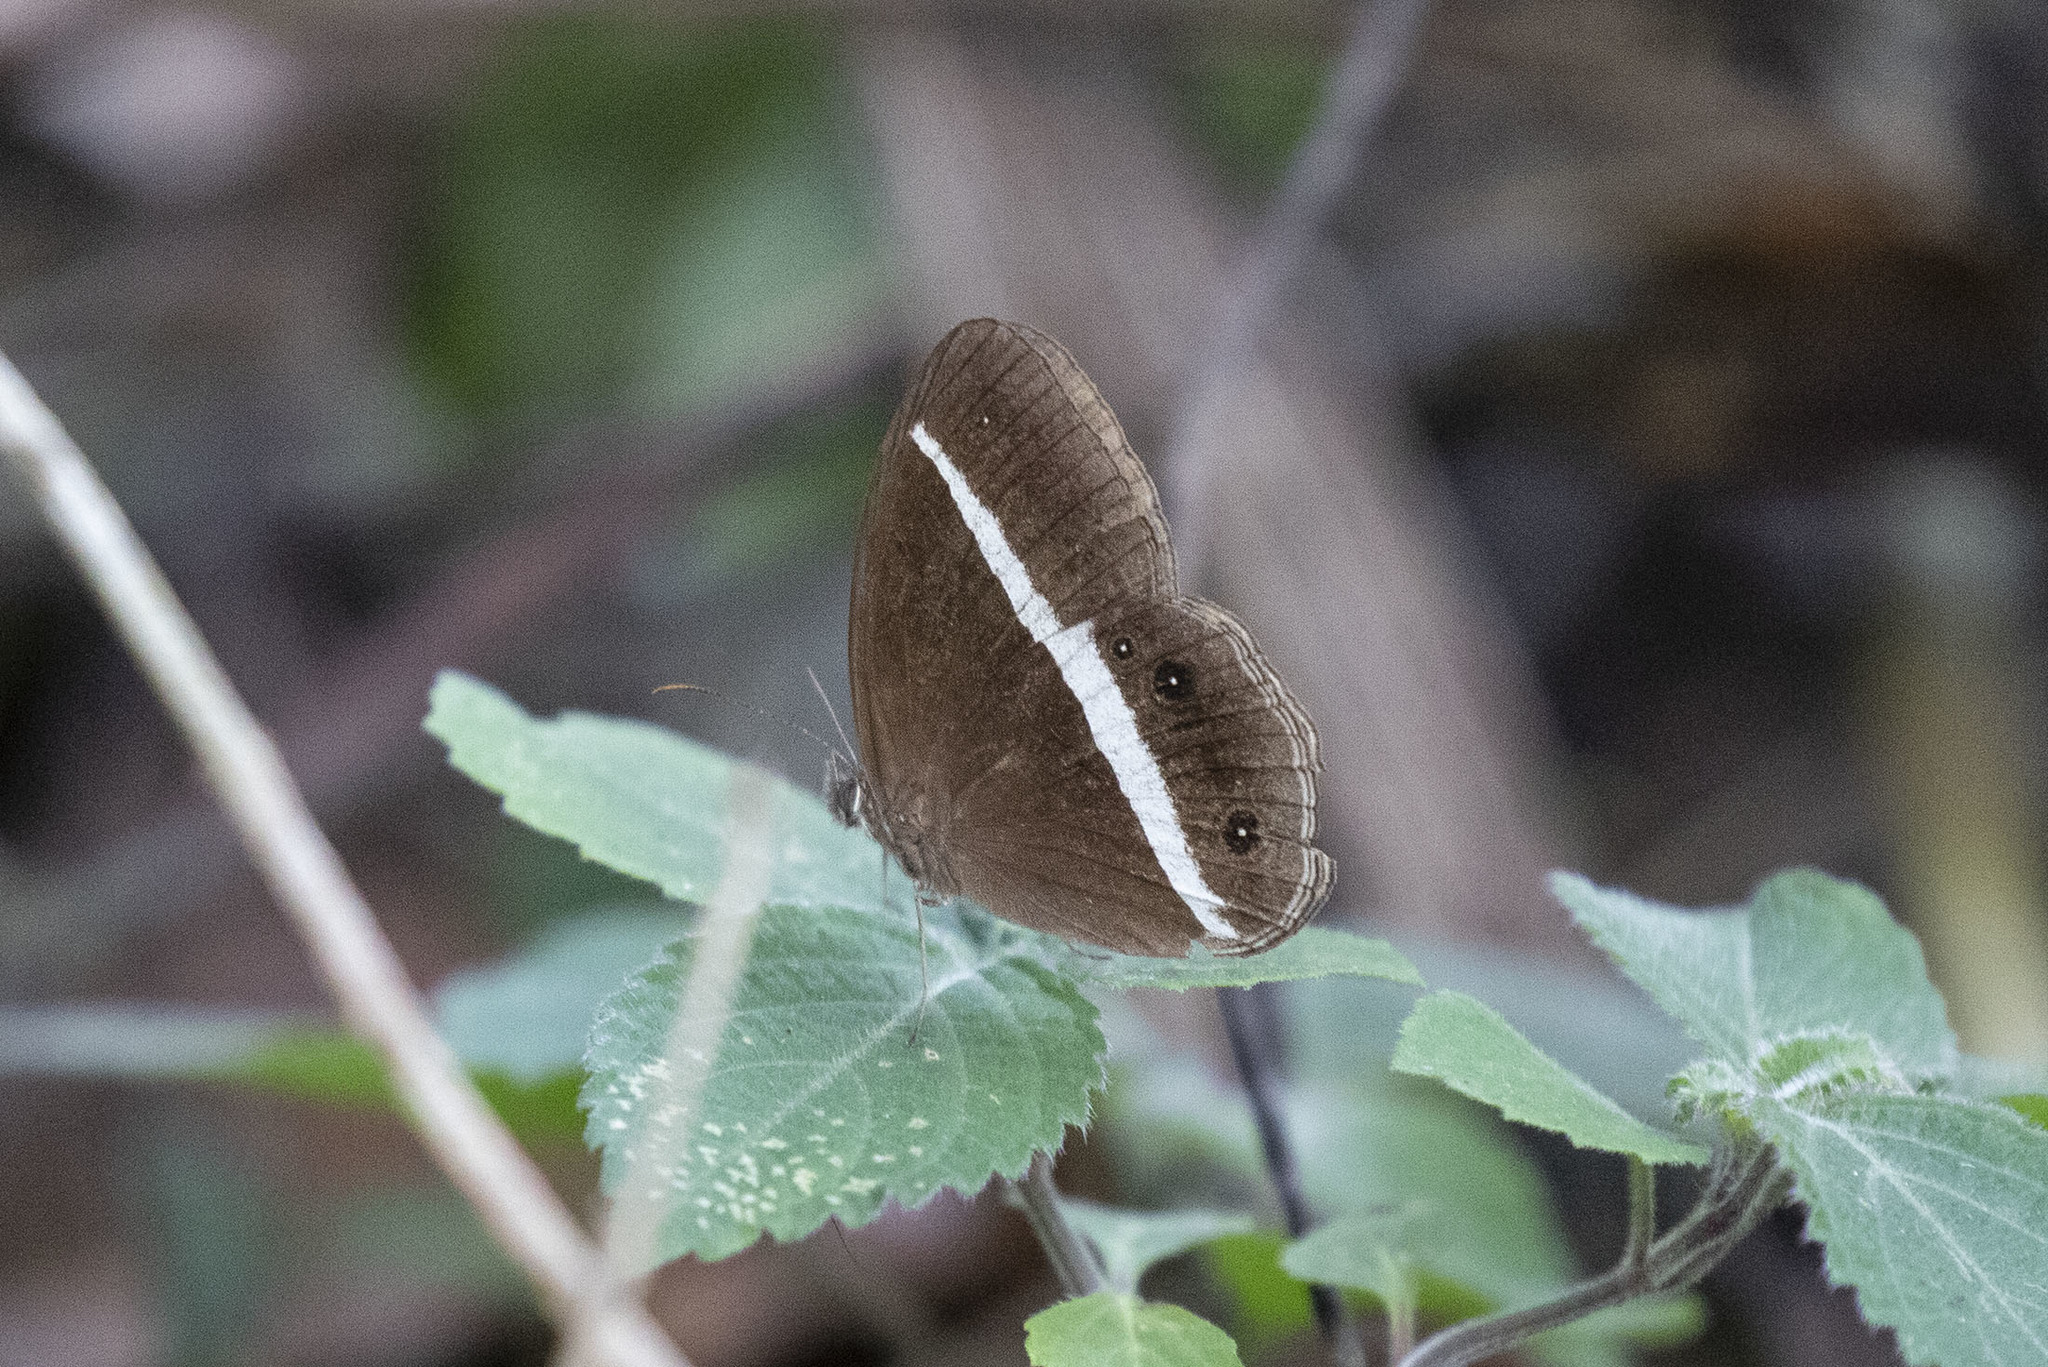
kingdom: Animalia
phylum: Arthropoda
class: Insecta
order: Lepidoptera
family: Nymphalidae
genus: Orsotriaena
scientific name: Orsotriaena medus
